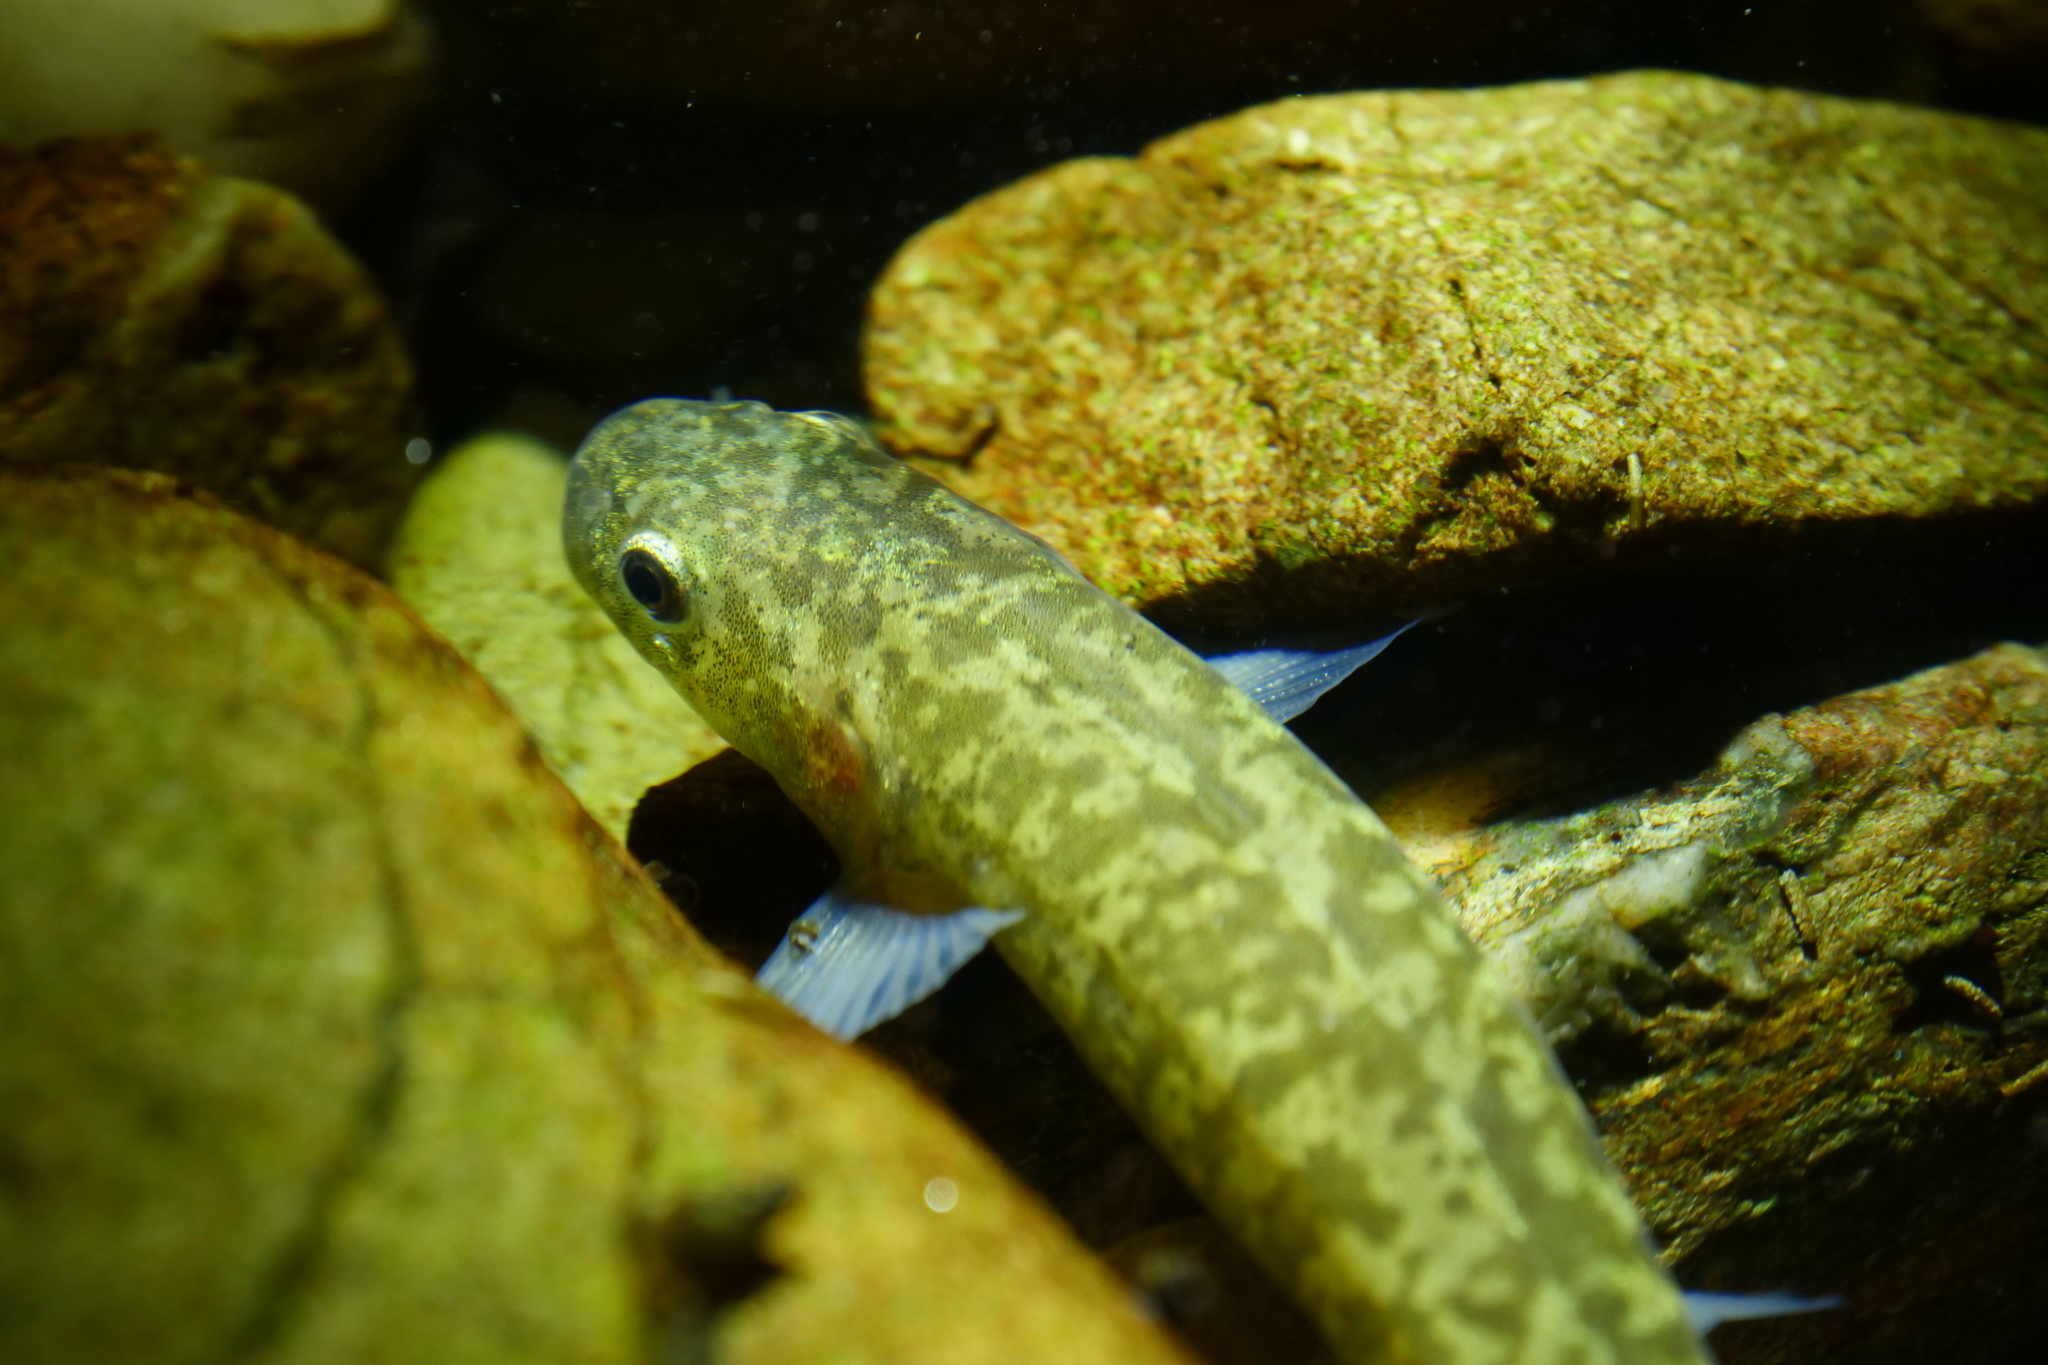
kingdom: Animalia
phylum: Chordata
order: Osmeriformes
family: Galaxiidae
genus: Galaxias
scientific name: Galaxias brevipinnis
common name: Koaro
